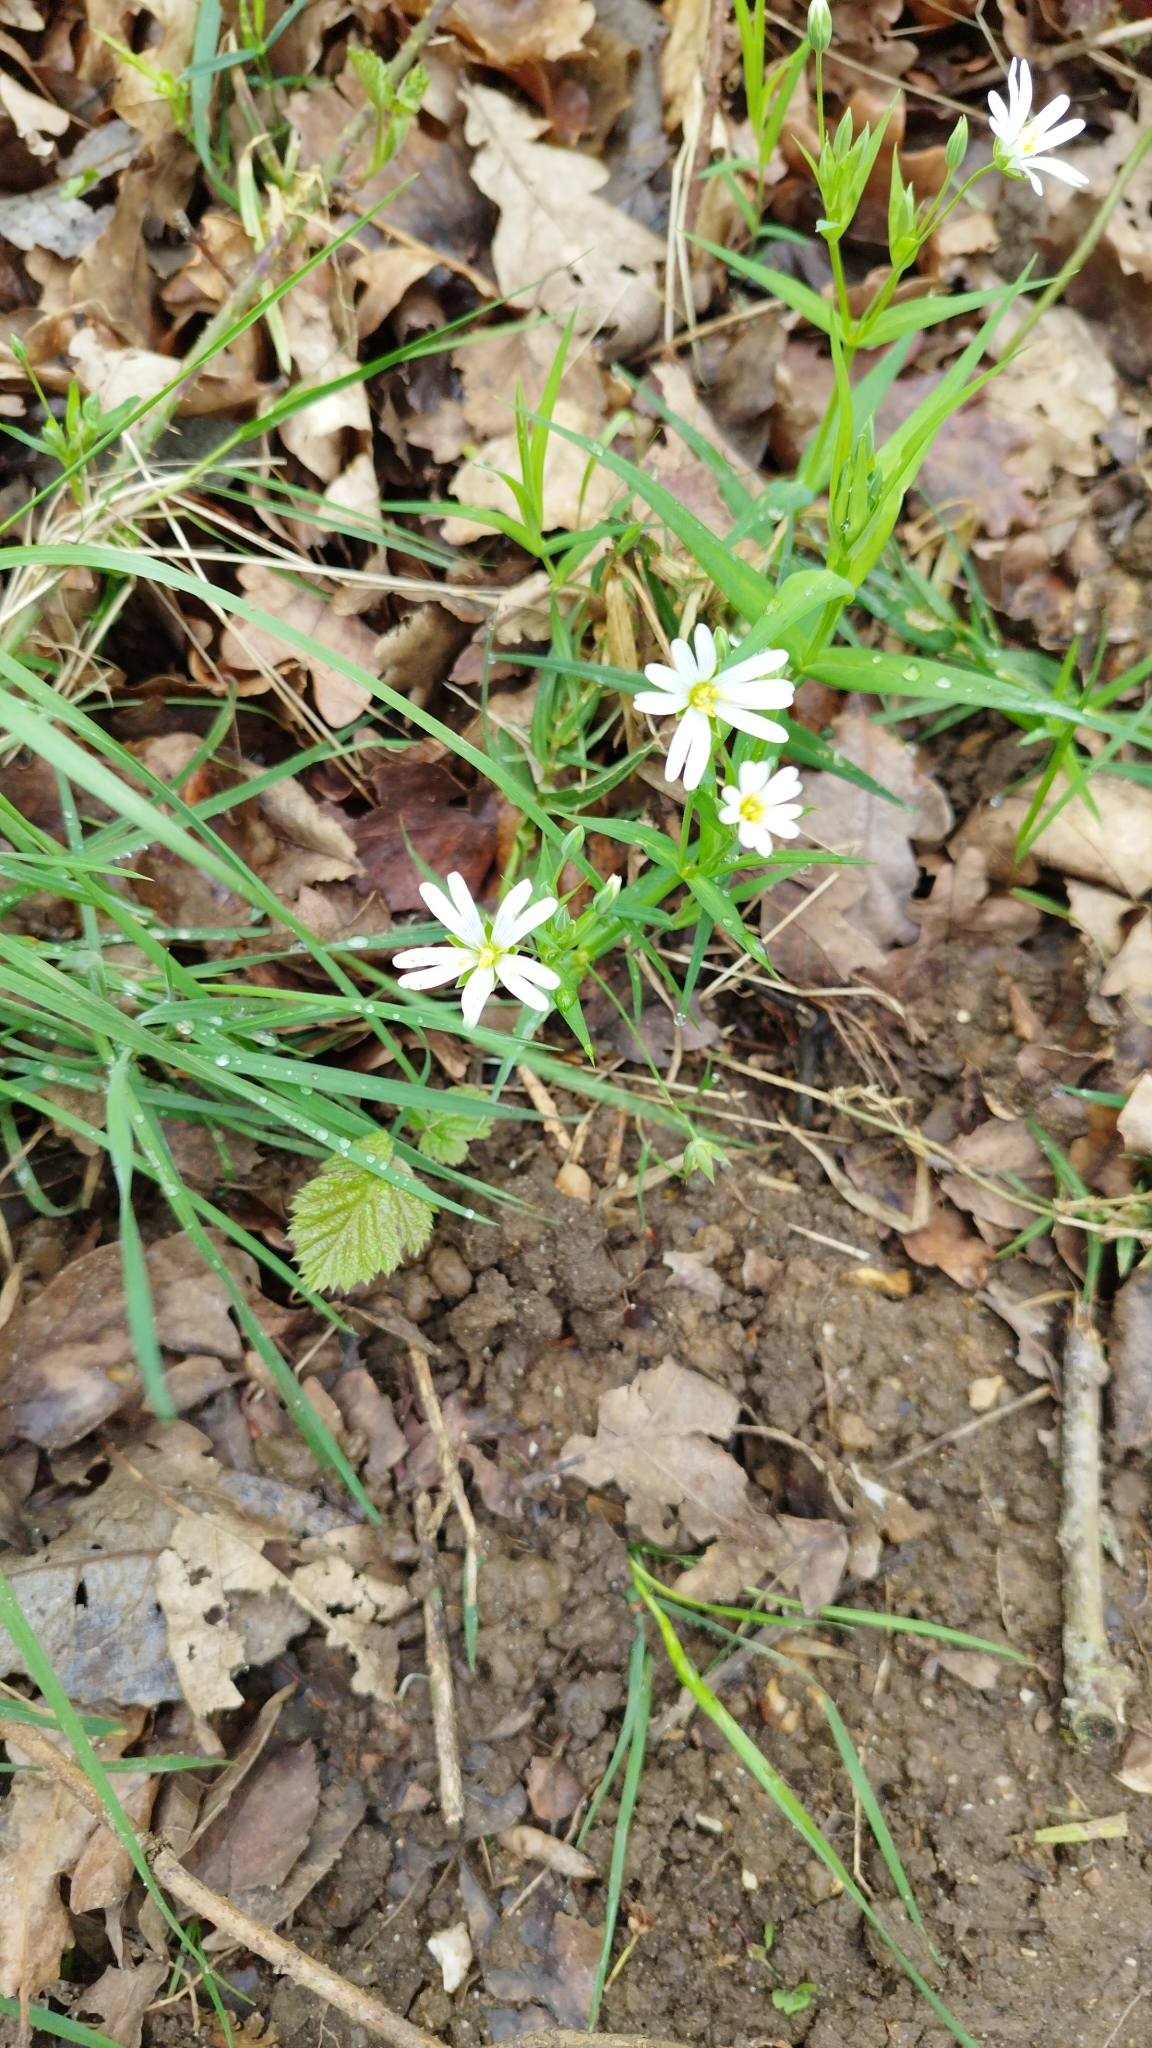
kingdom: Plantae
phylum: Tracheophyta
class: Magnoliopsida
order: Caryophyllales
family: Caryophyllaceae
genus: Rabelera
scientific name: Rabelera holostea
